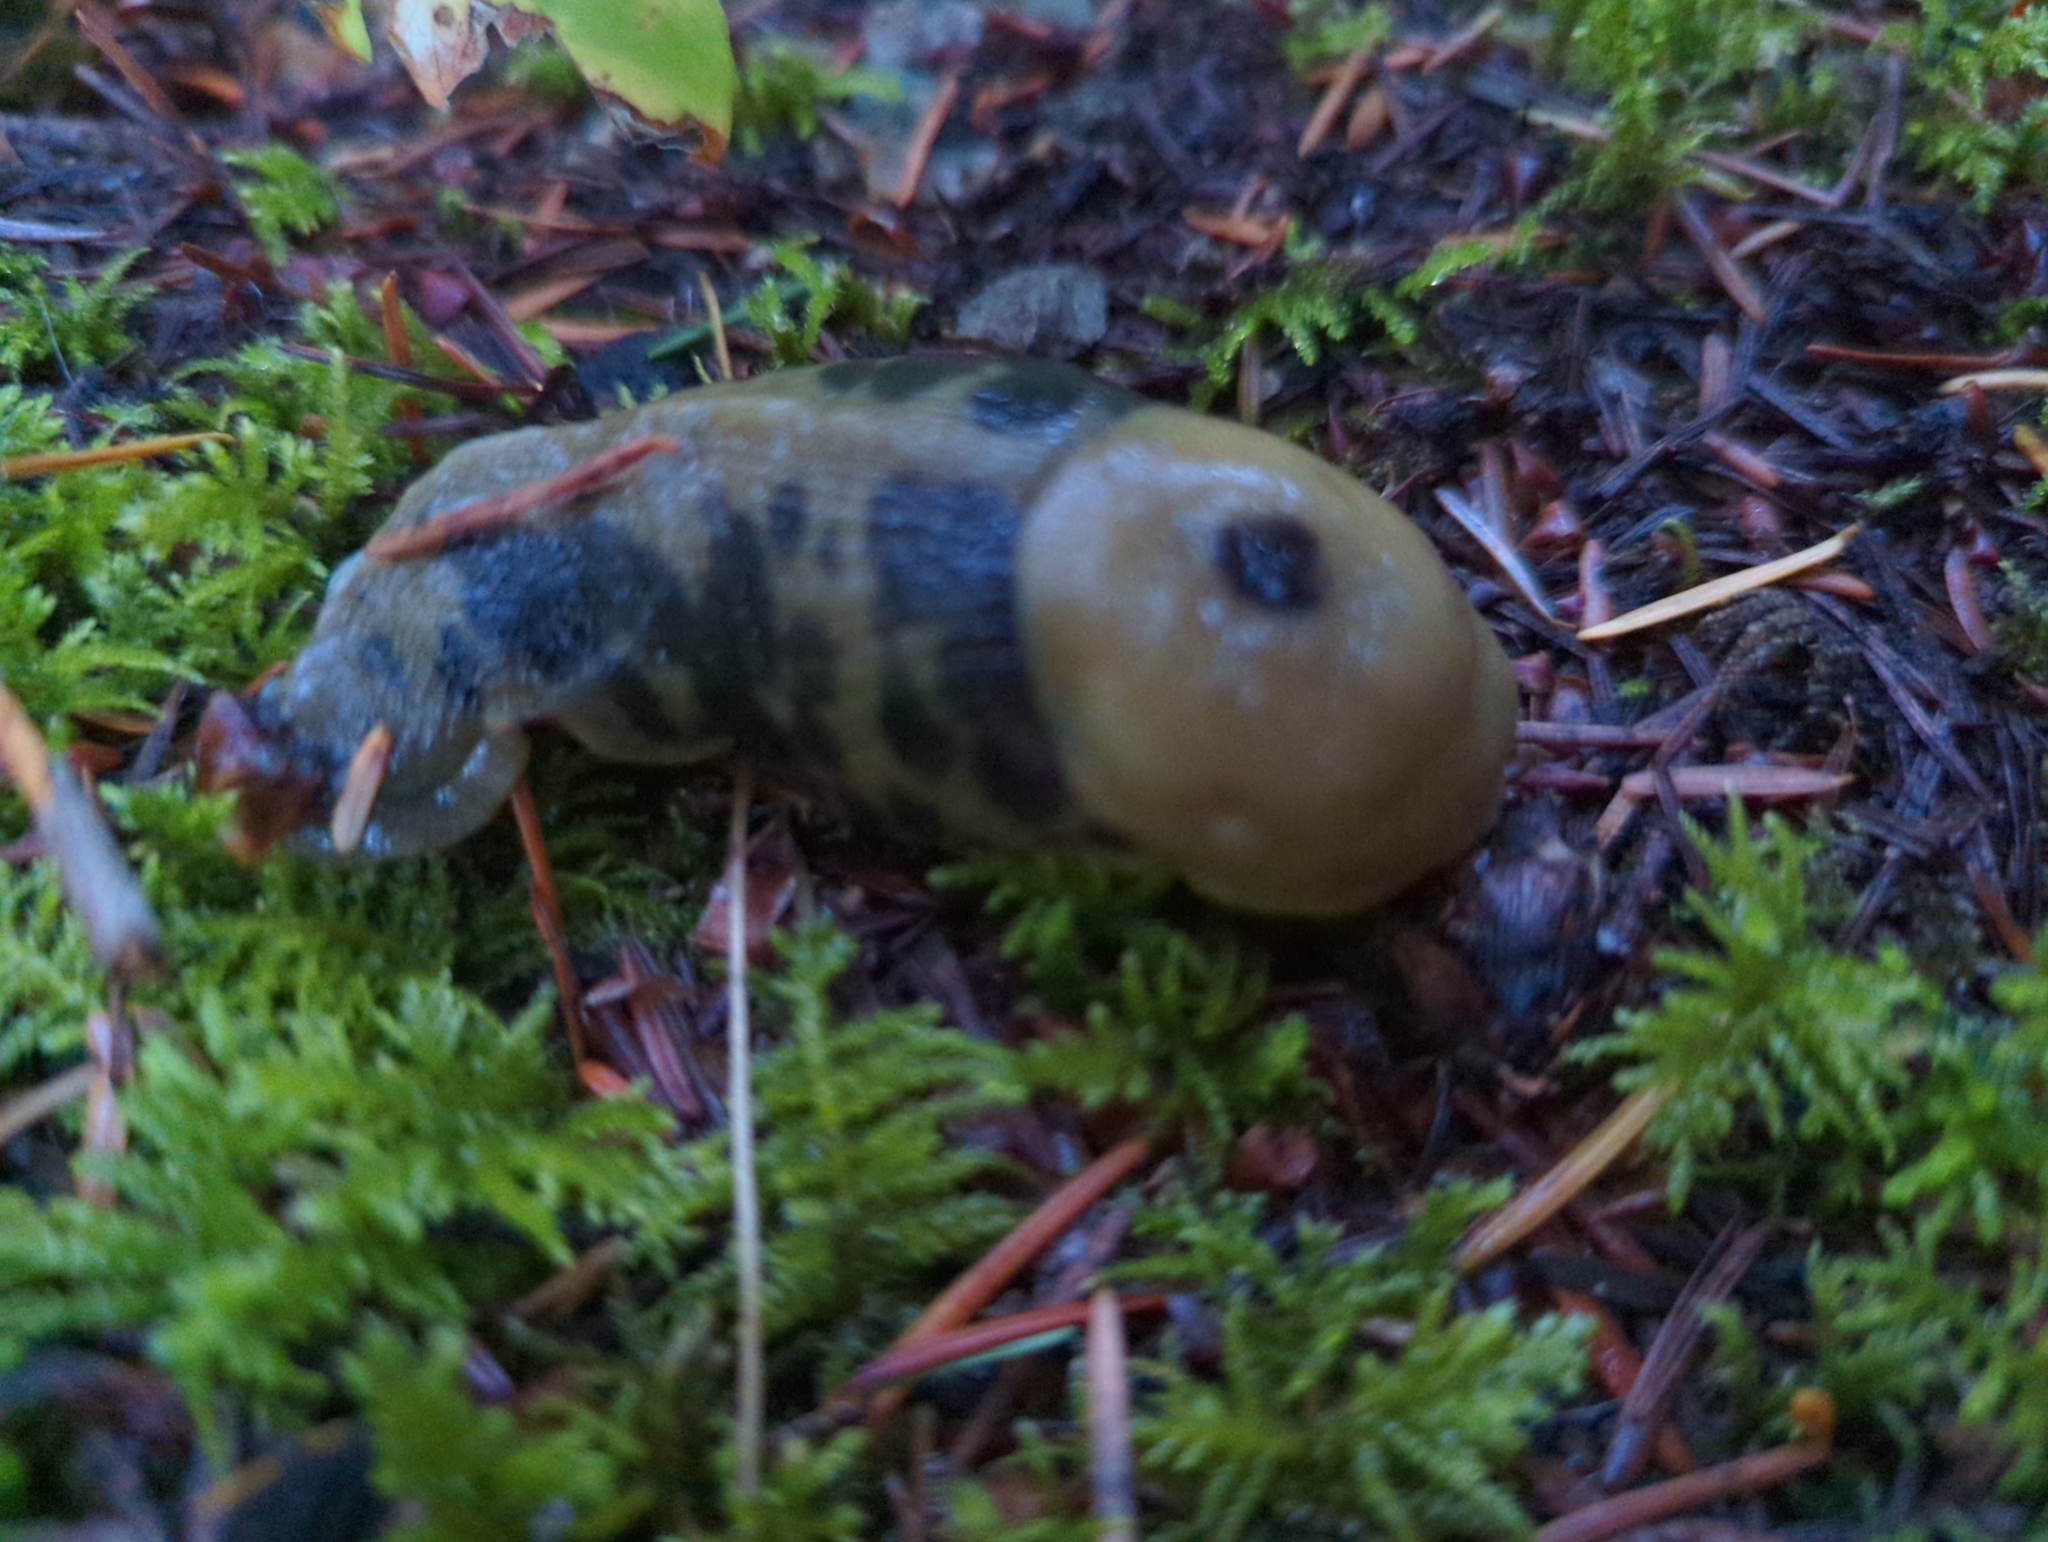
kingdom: Animalia
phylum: Mollusca
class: Gastropoda
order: Stylommatophora
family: Ariolimacidae
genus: Ariolimax
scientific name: Ariolimax columbianus
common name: Pacific banana slug
